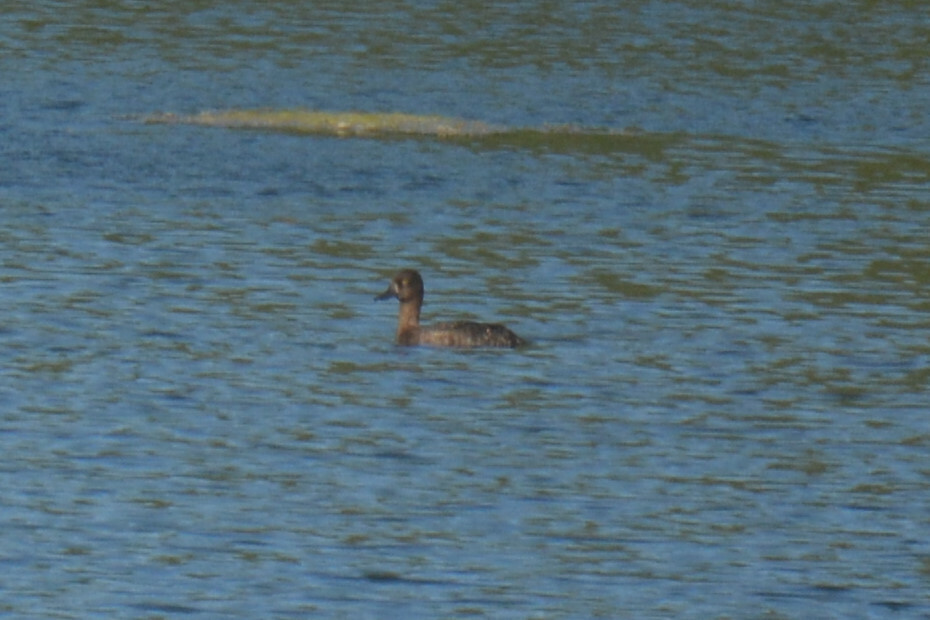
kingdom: Animalia
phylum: Chordata
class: Aves
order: Anseriformes
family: Anatidae
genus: Aythya
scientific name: Aythya fuligula
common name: Tufted duck
